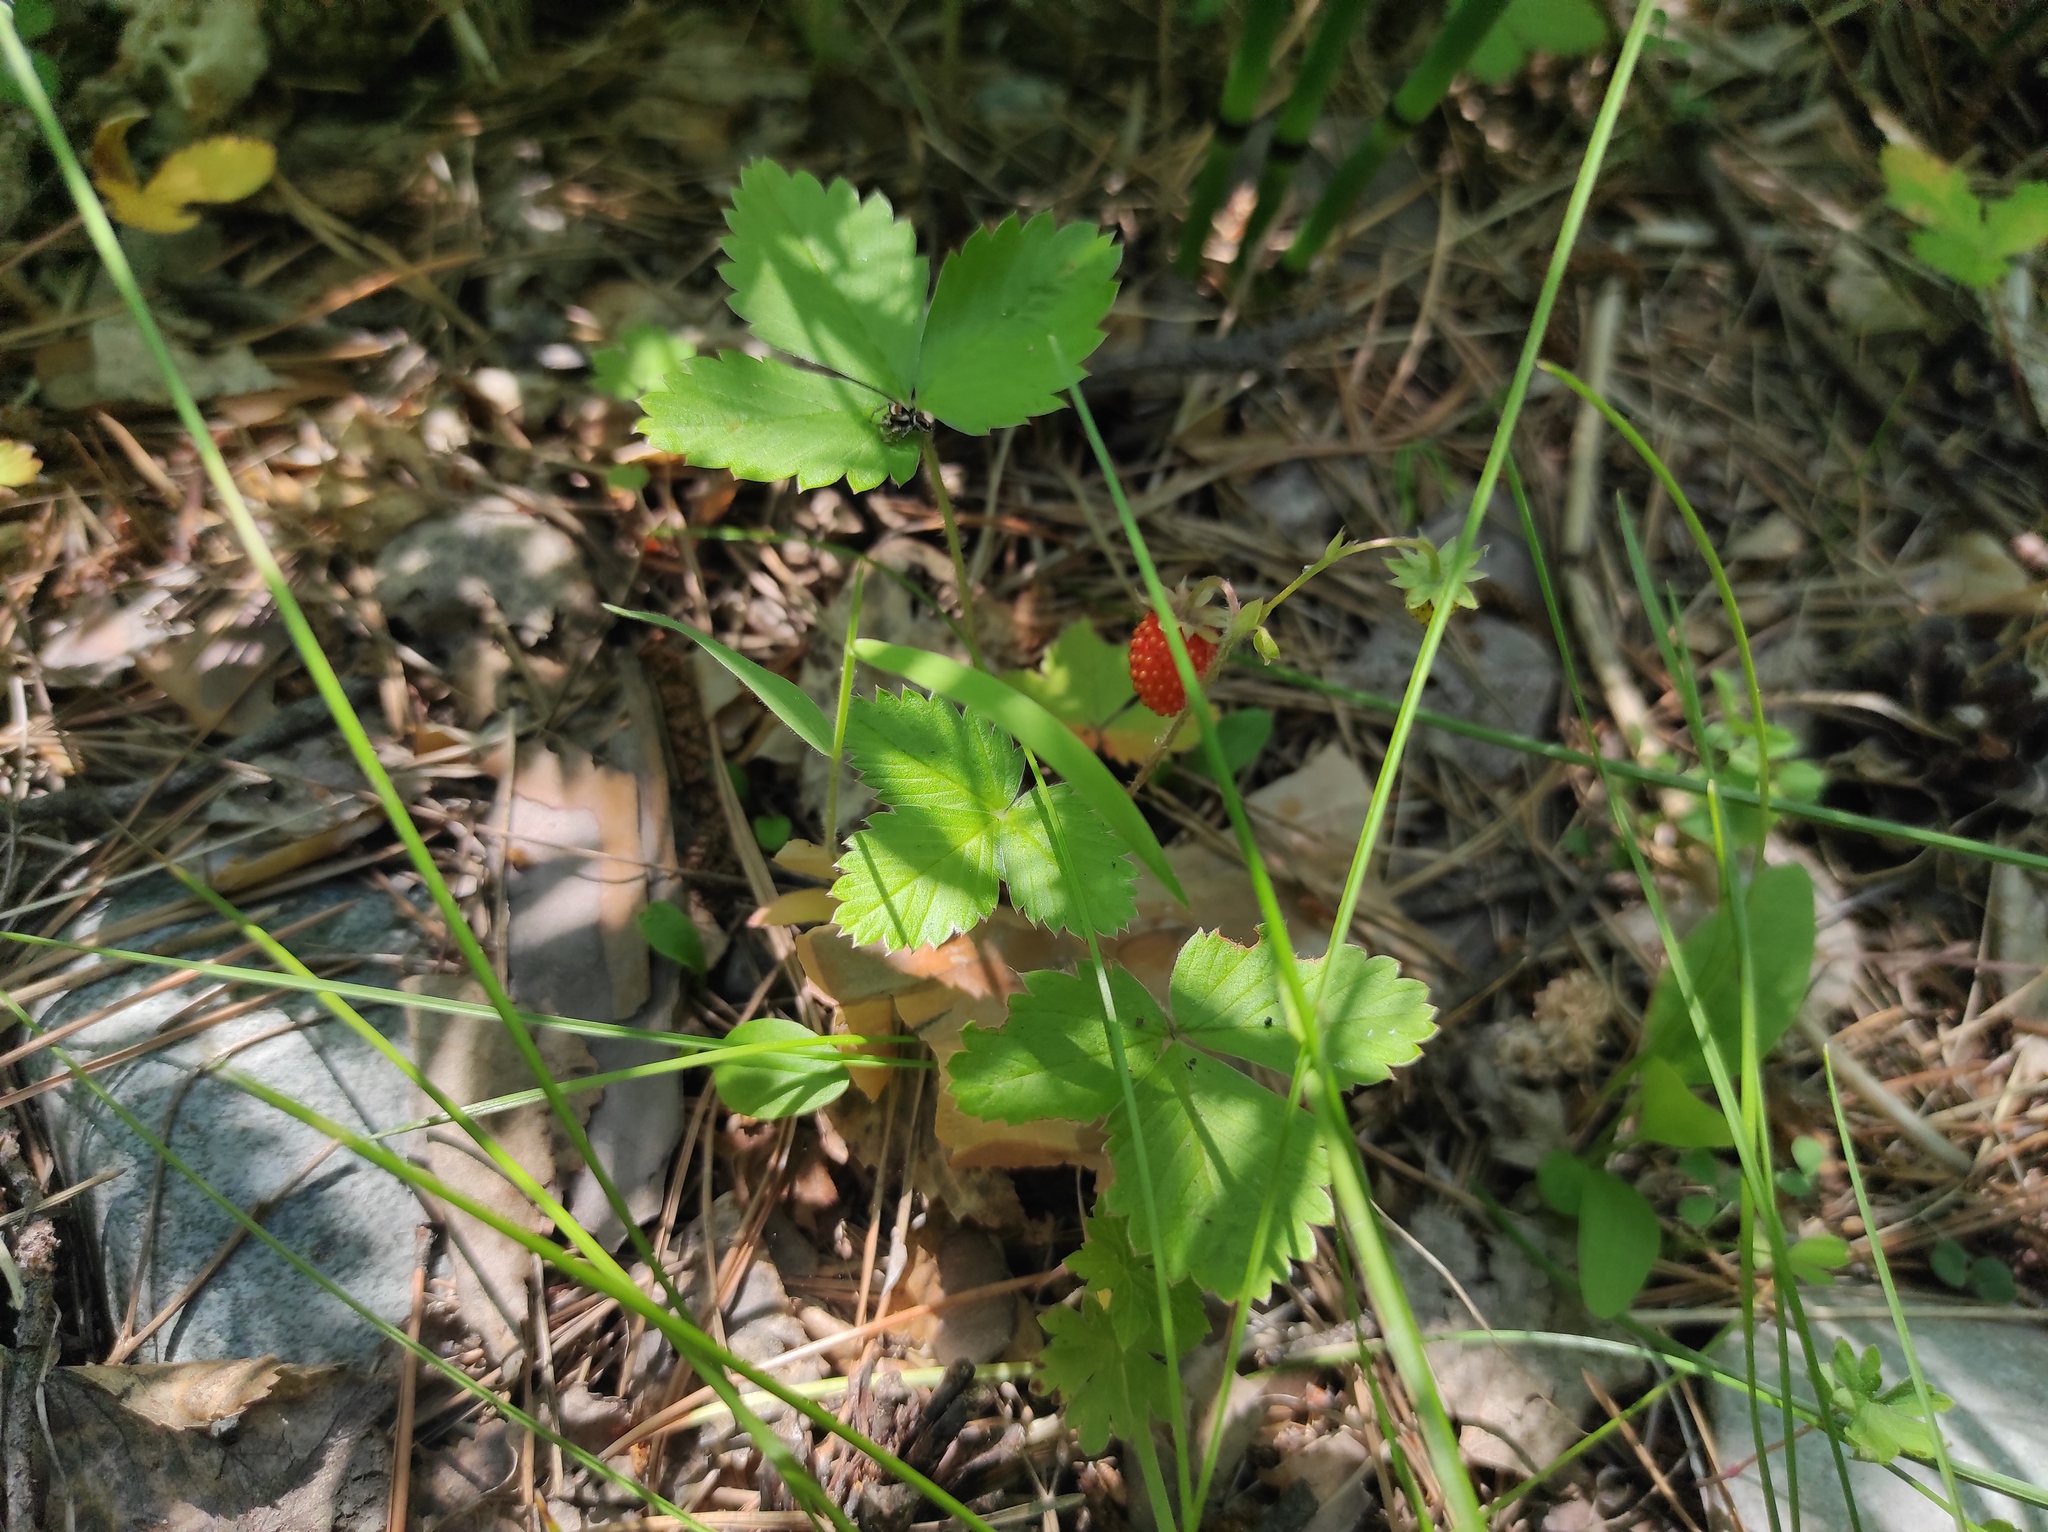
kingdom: Plantae
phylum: Tracheophyta
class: Magnoliopsida
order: Rosales
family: Rosaceae
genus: Fragaria
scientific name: Fragaria vesca
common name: Wild strawberry
